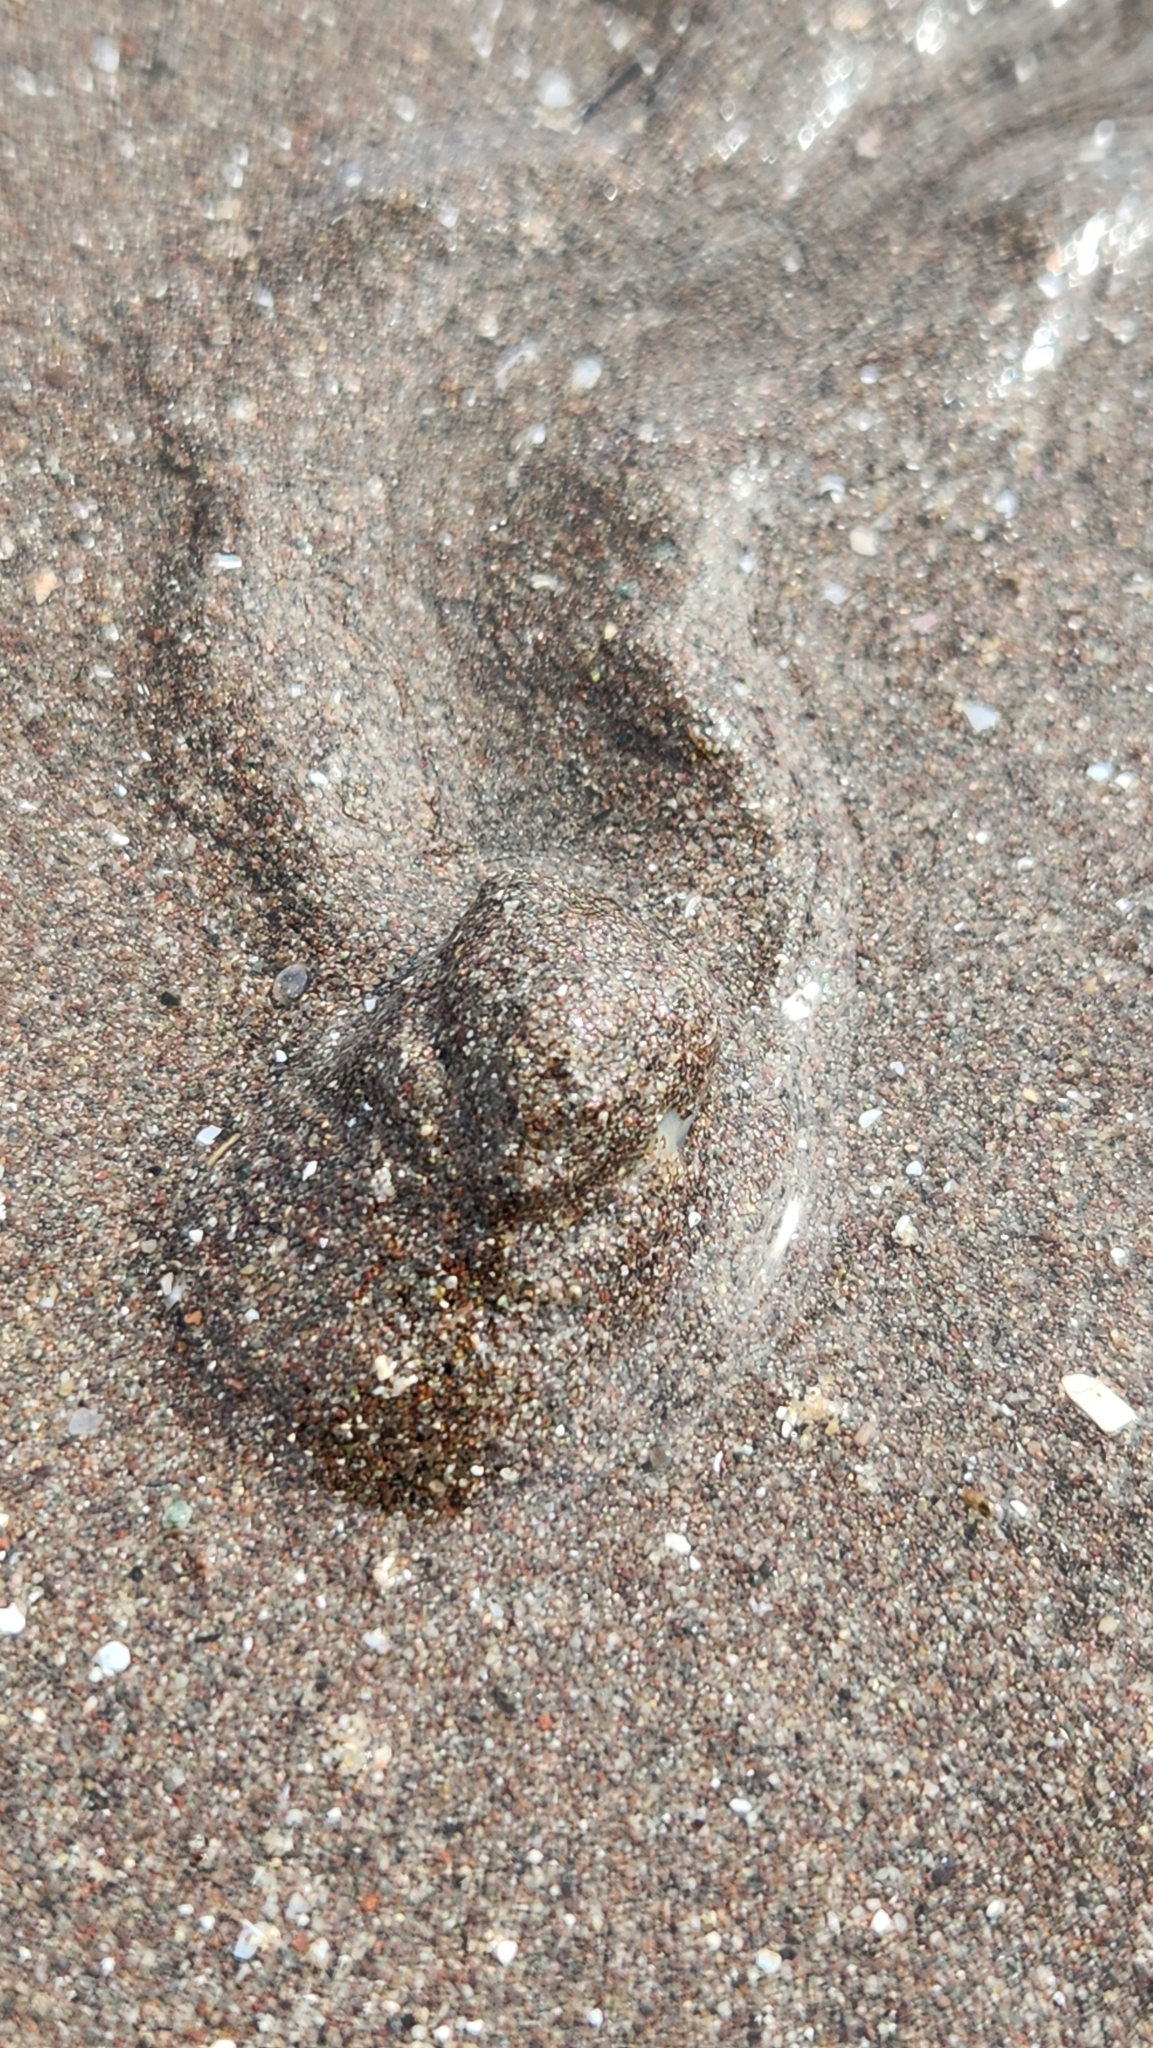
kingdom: Animalia
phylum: Mollusca
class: Gastropoda
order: Littorinimorpha
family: Naticidae
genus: Notocochlis
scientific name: Notocochlis chemnitzii
